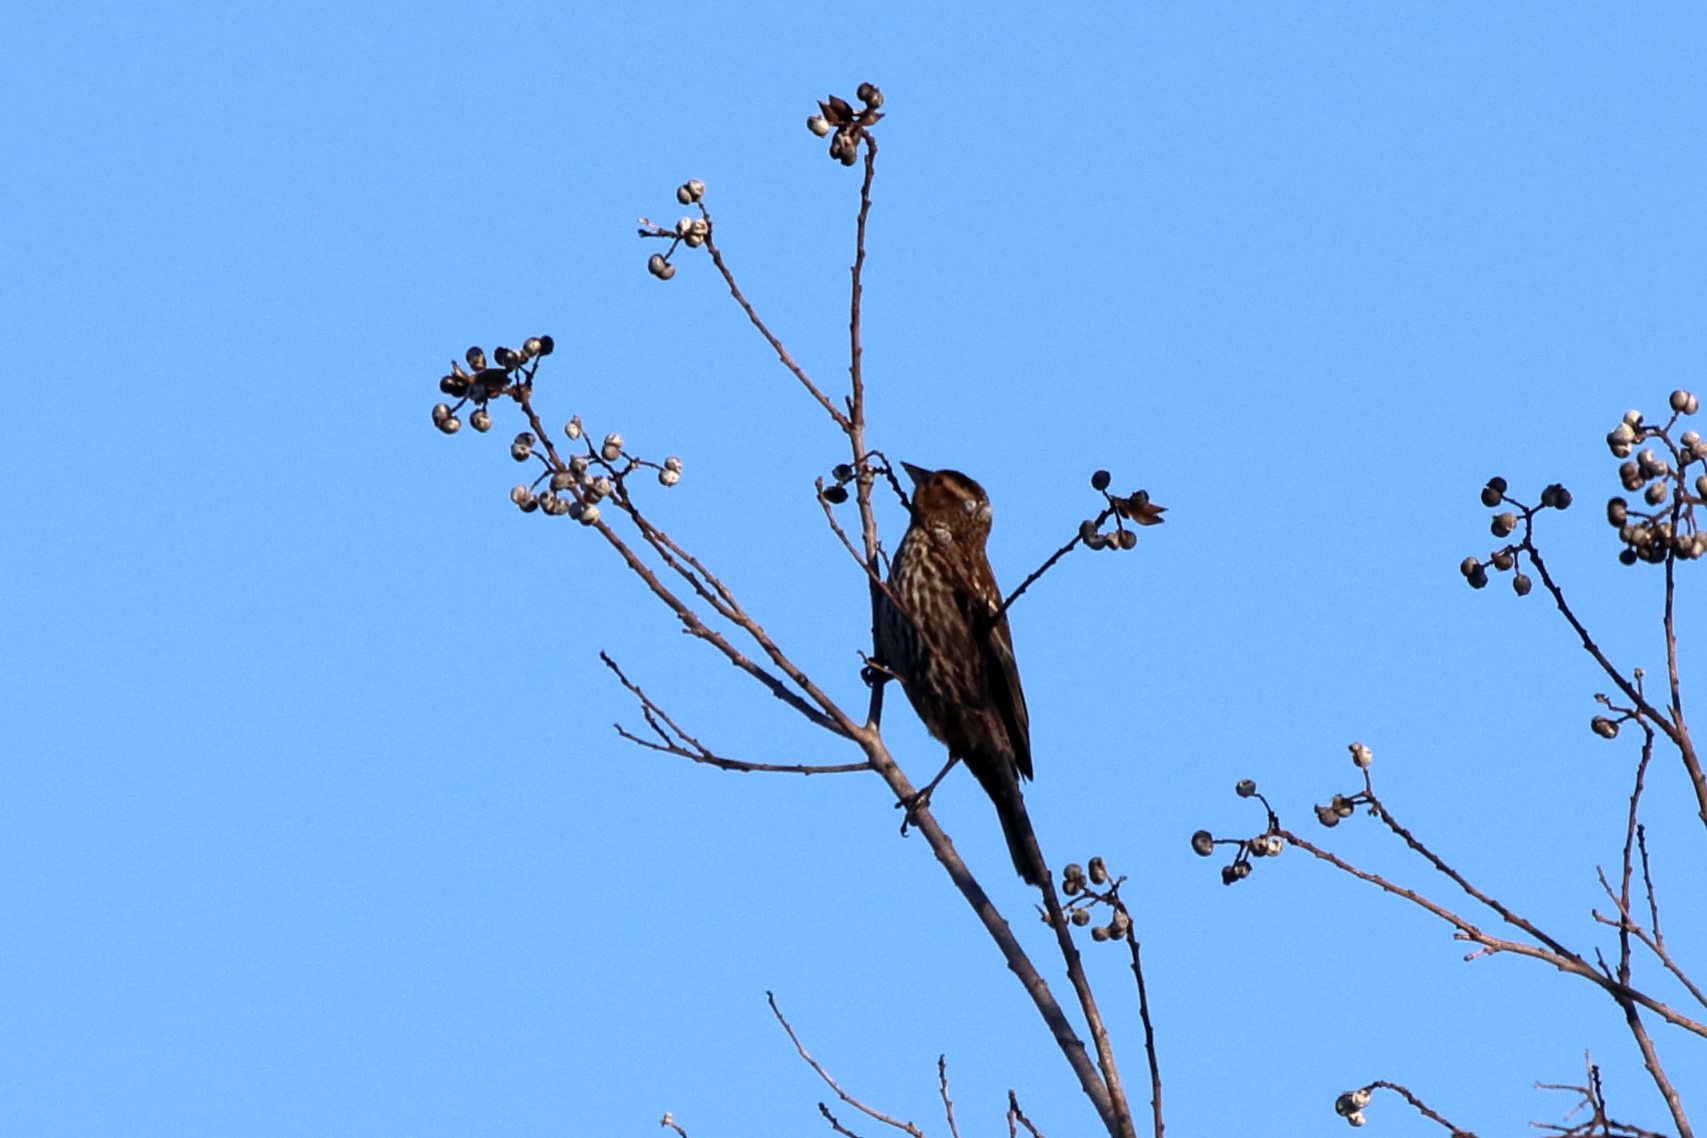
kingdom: Animalia
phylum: Chordata
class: Aves
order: Passeriformes
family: Icteridae
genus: Agelaius
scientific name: Agelaius phoeniceus
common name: Red-winged blackbird
